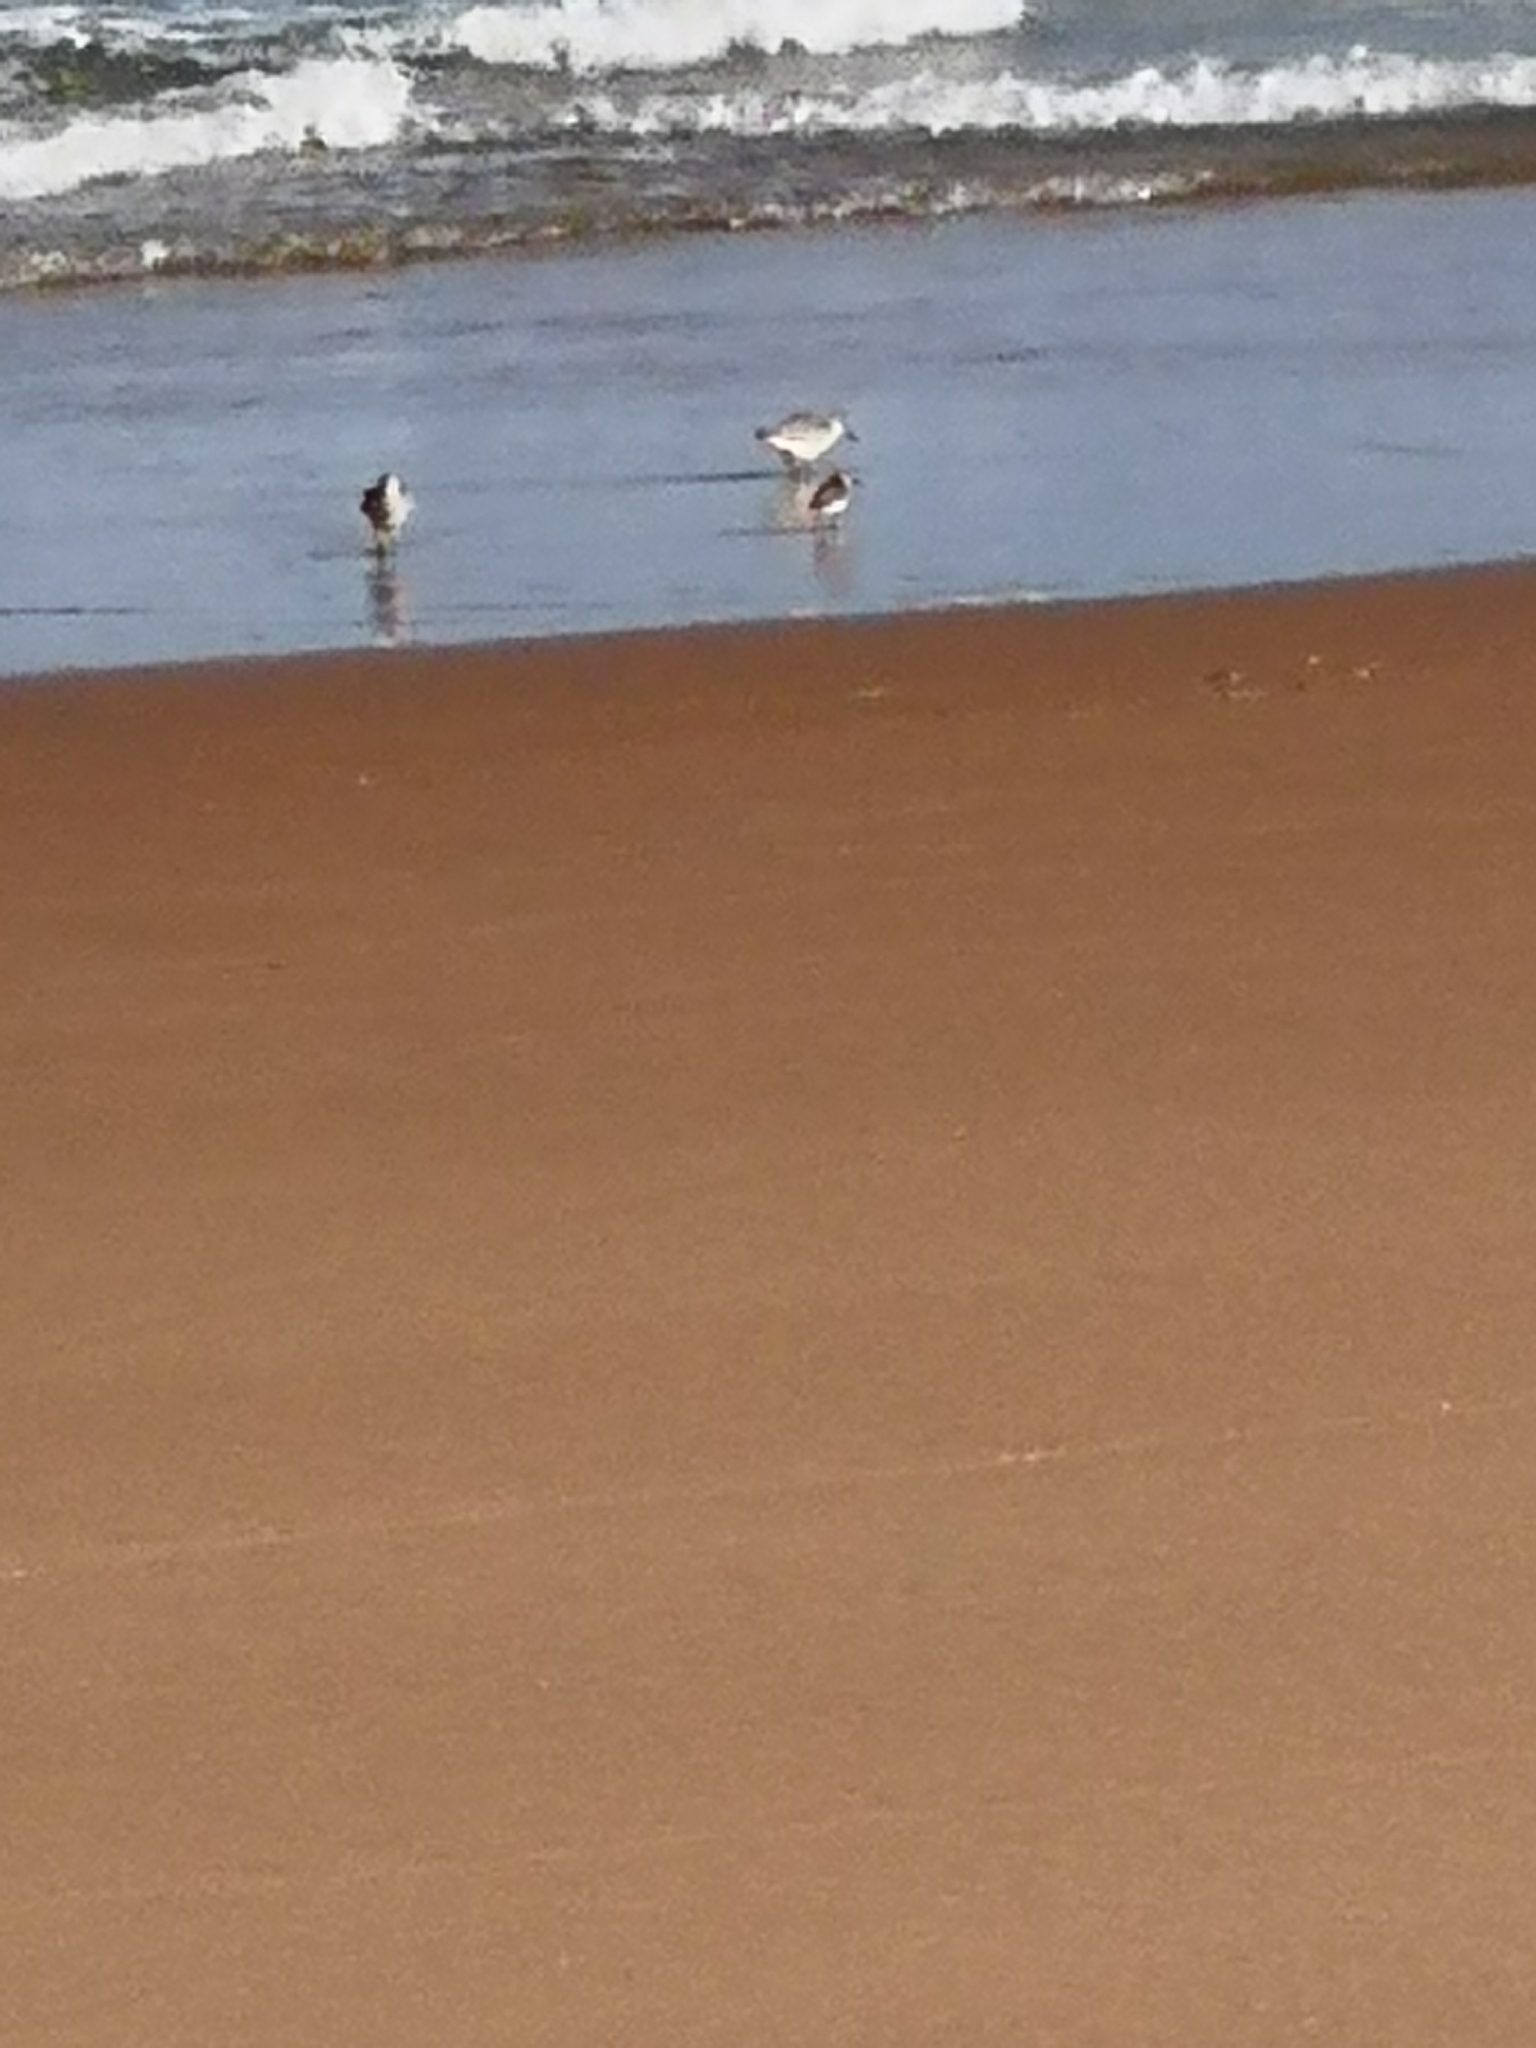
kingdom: Animalia
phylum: Chordata
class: Aves
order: Charadriiformes
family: Scolopacidae
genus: Calidris
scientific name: Calidris alba
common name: Sanderling
